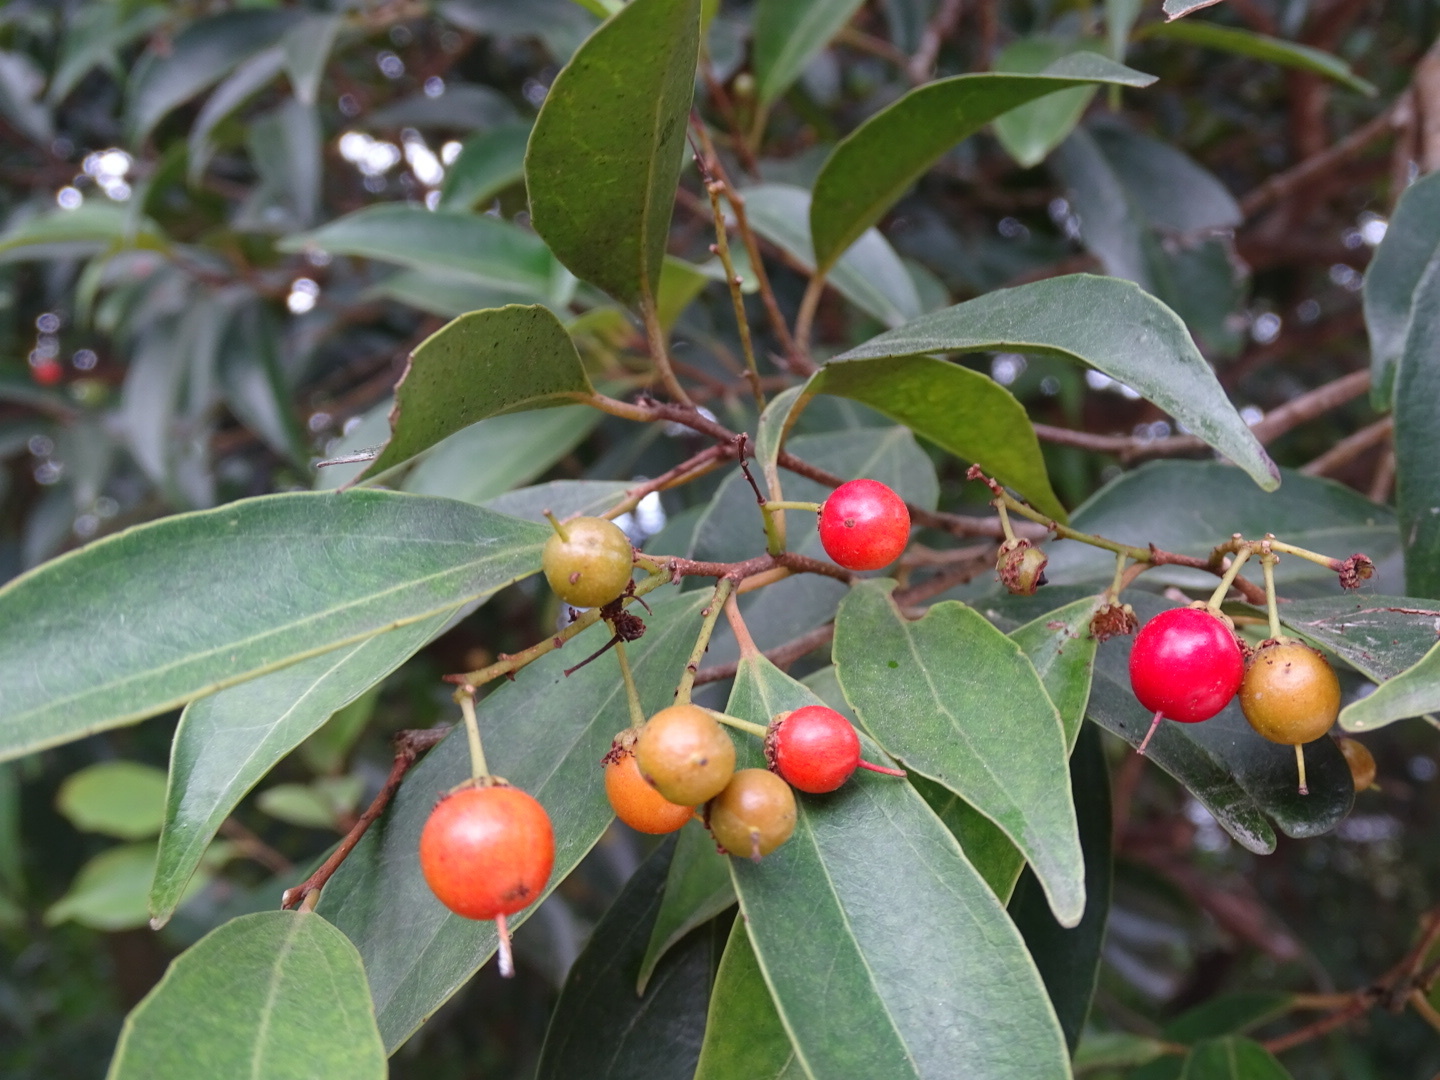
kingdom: Plantae
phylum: Tracheophyta
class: Magnoliopsida
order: Malpighiales
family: Salicaceae
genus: Scolopia
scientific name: Scolopia saeva
